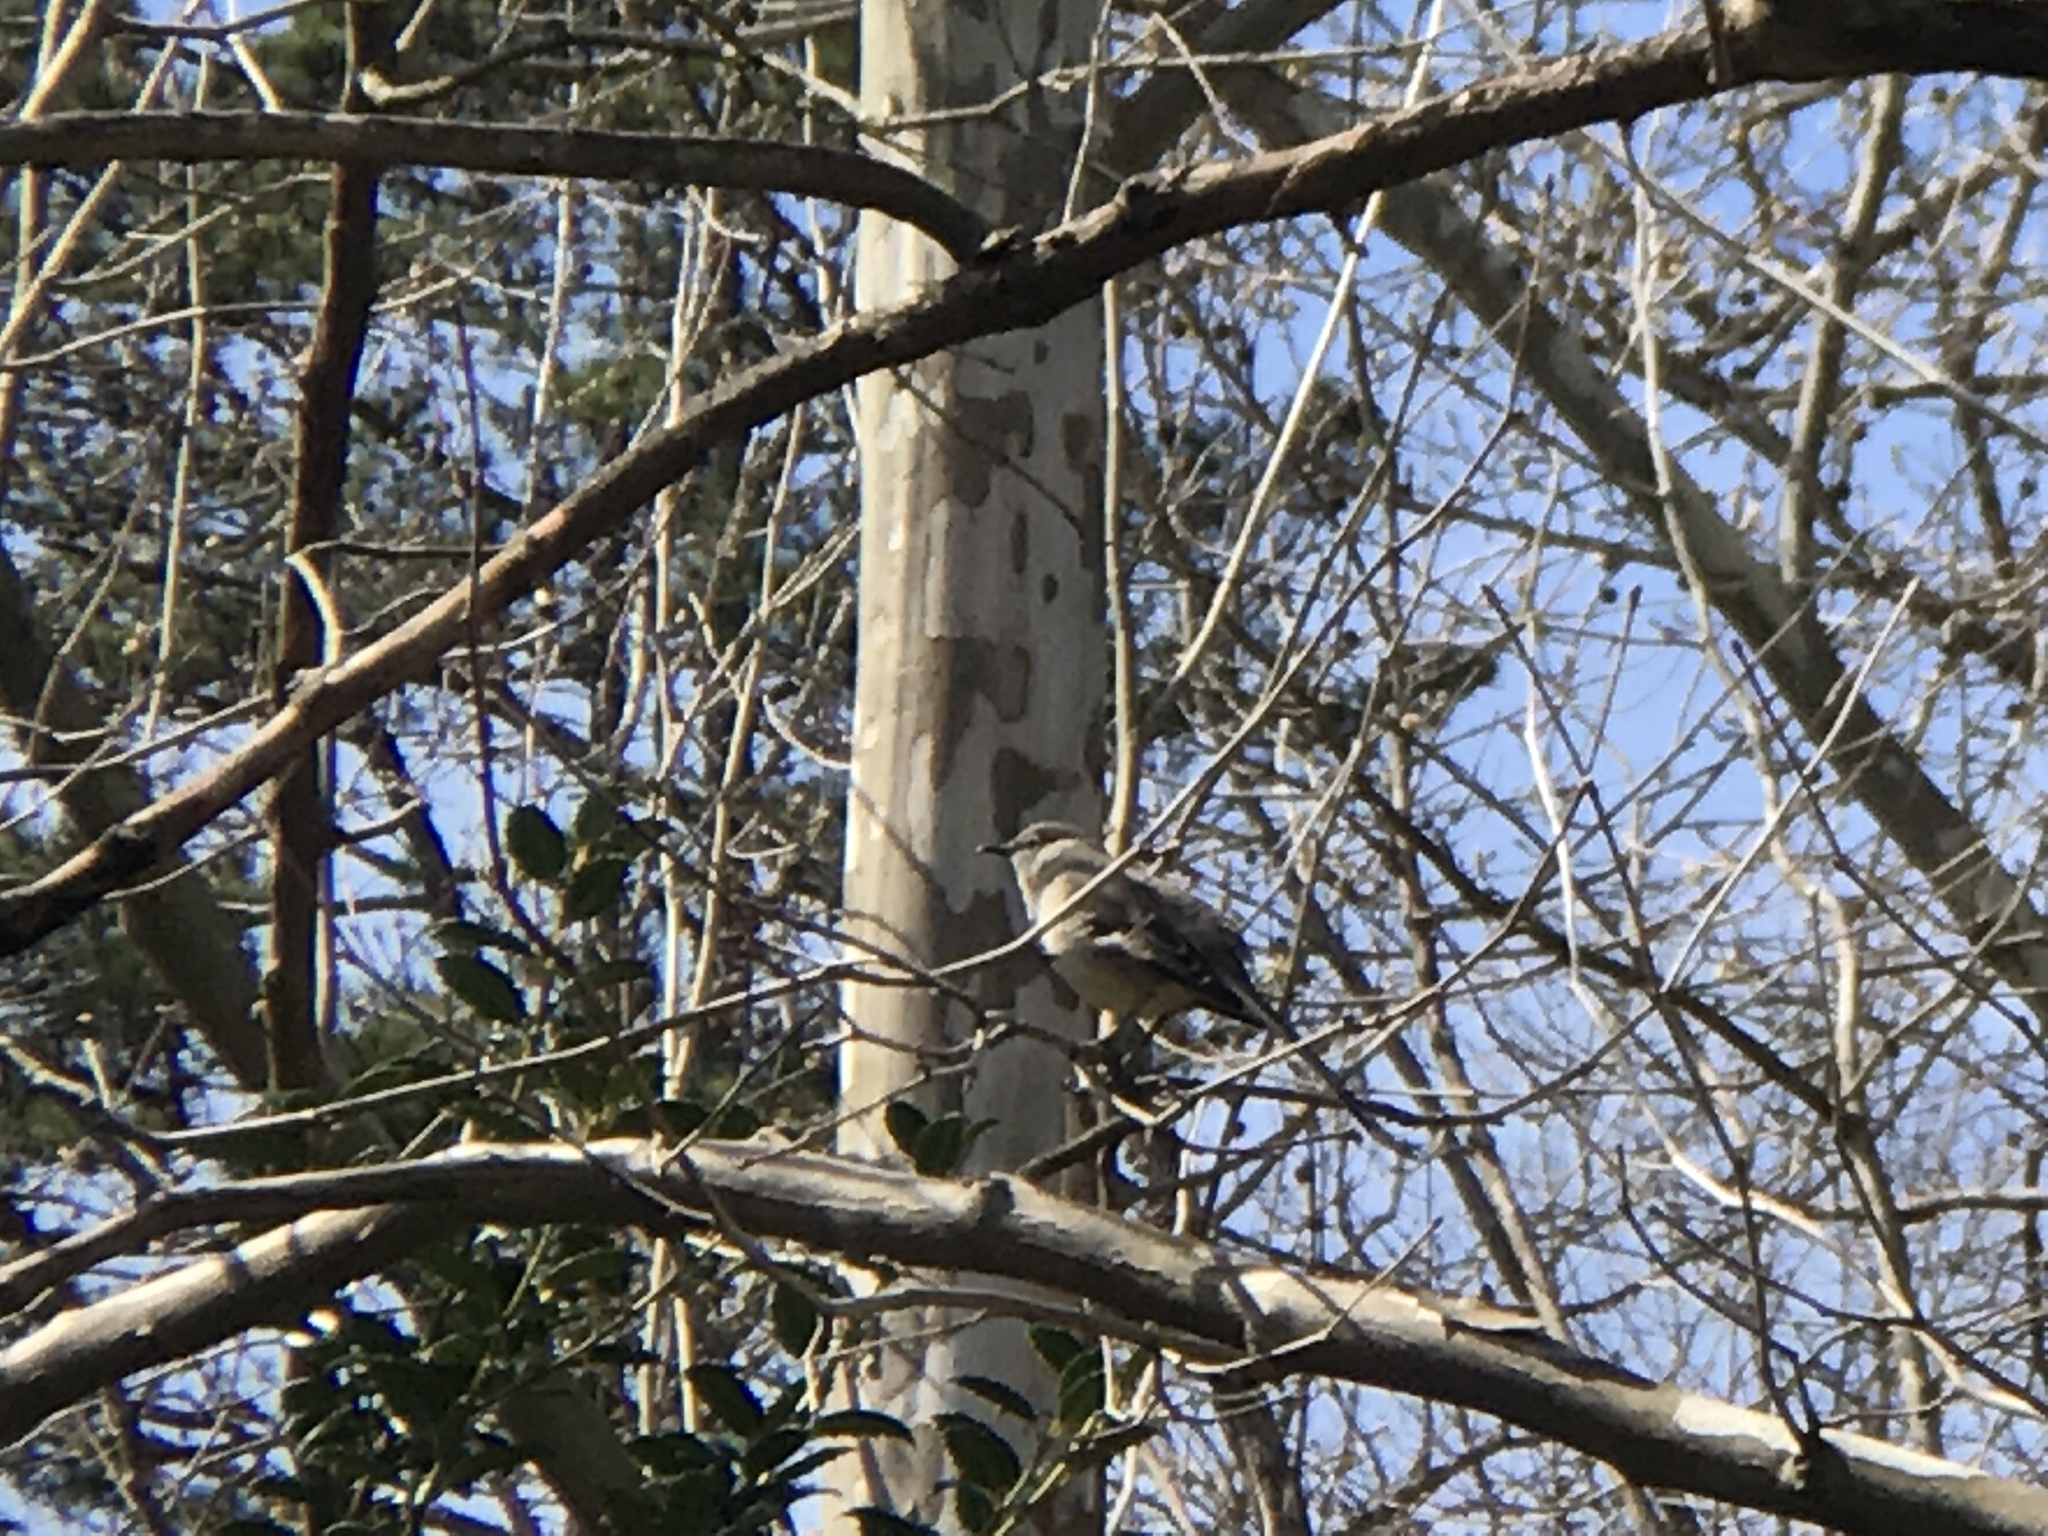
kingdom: Animalia
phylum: Chordata
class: Aves
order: Passeriformes
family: Mimidae
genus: Mimus
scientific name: Mimus polyglottos
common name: Northern mockingbird
